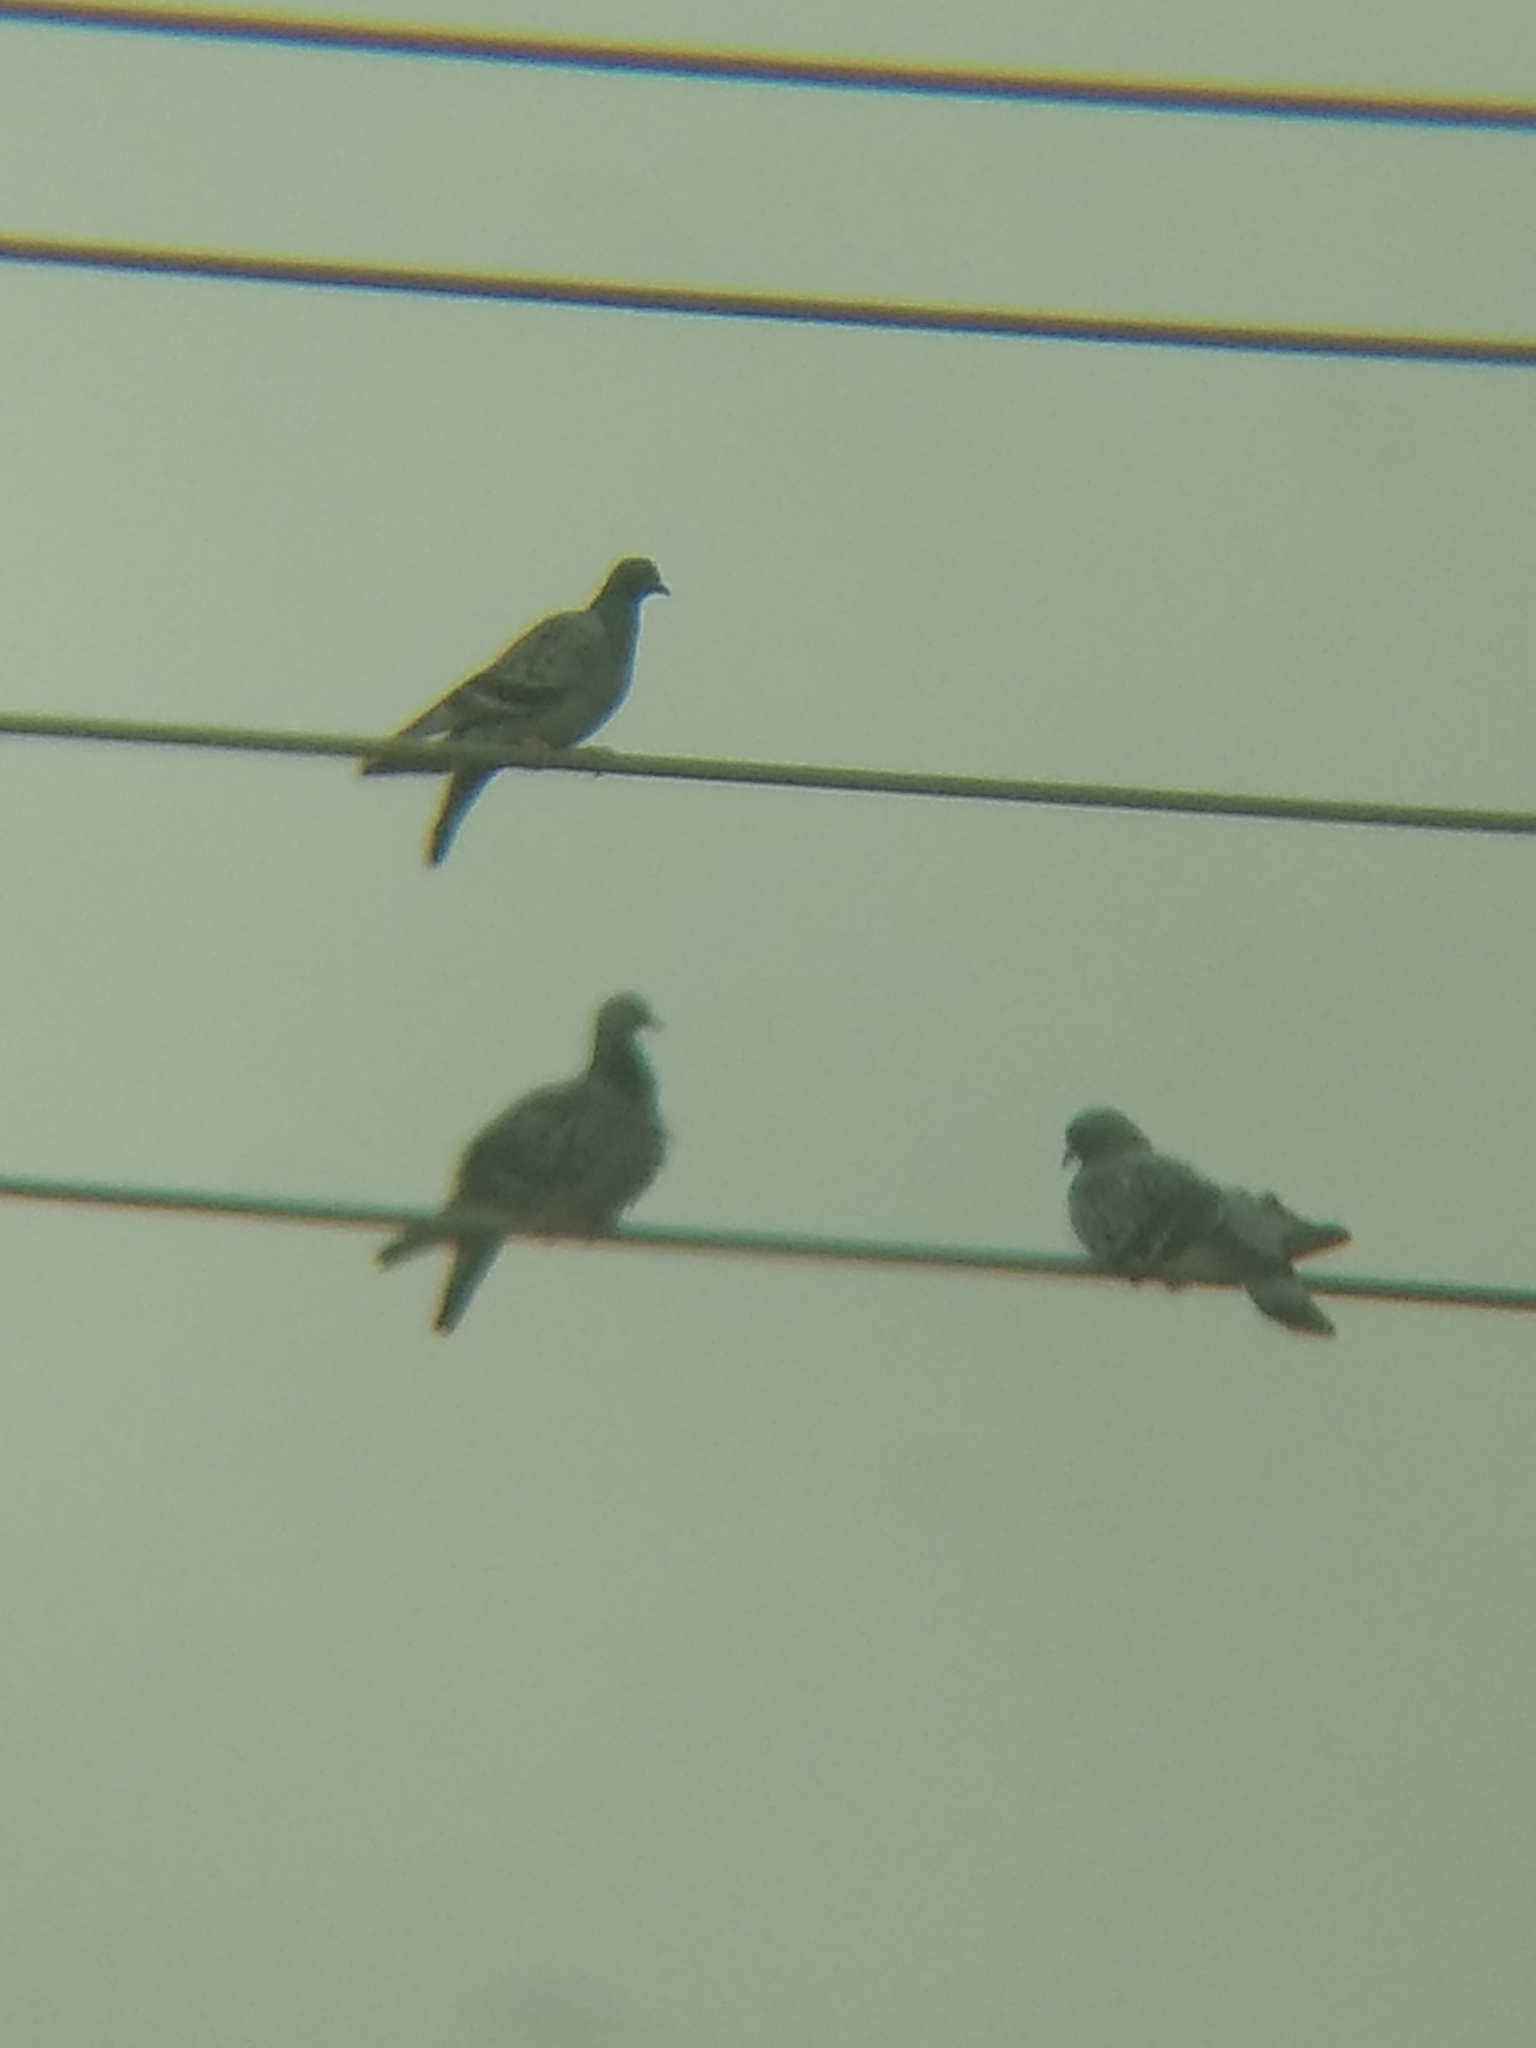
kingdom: Animalia
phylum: Chordata
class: Aves
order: Columbiformes
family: Columbidae
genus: Columba
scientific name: Columba livia
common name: Rock pigeon
